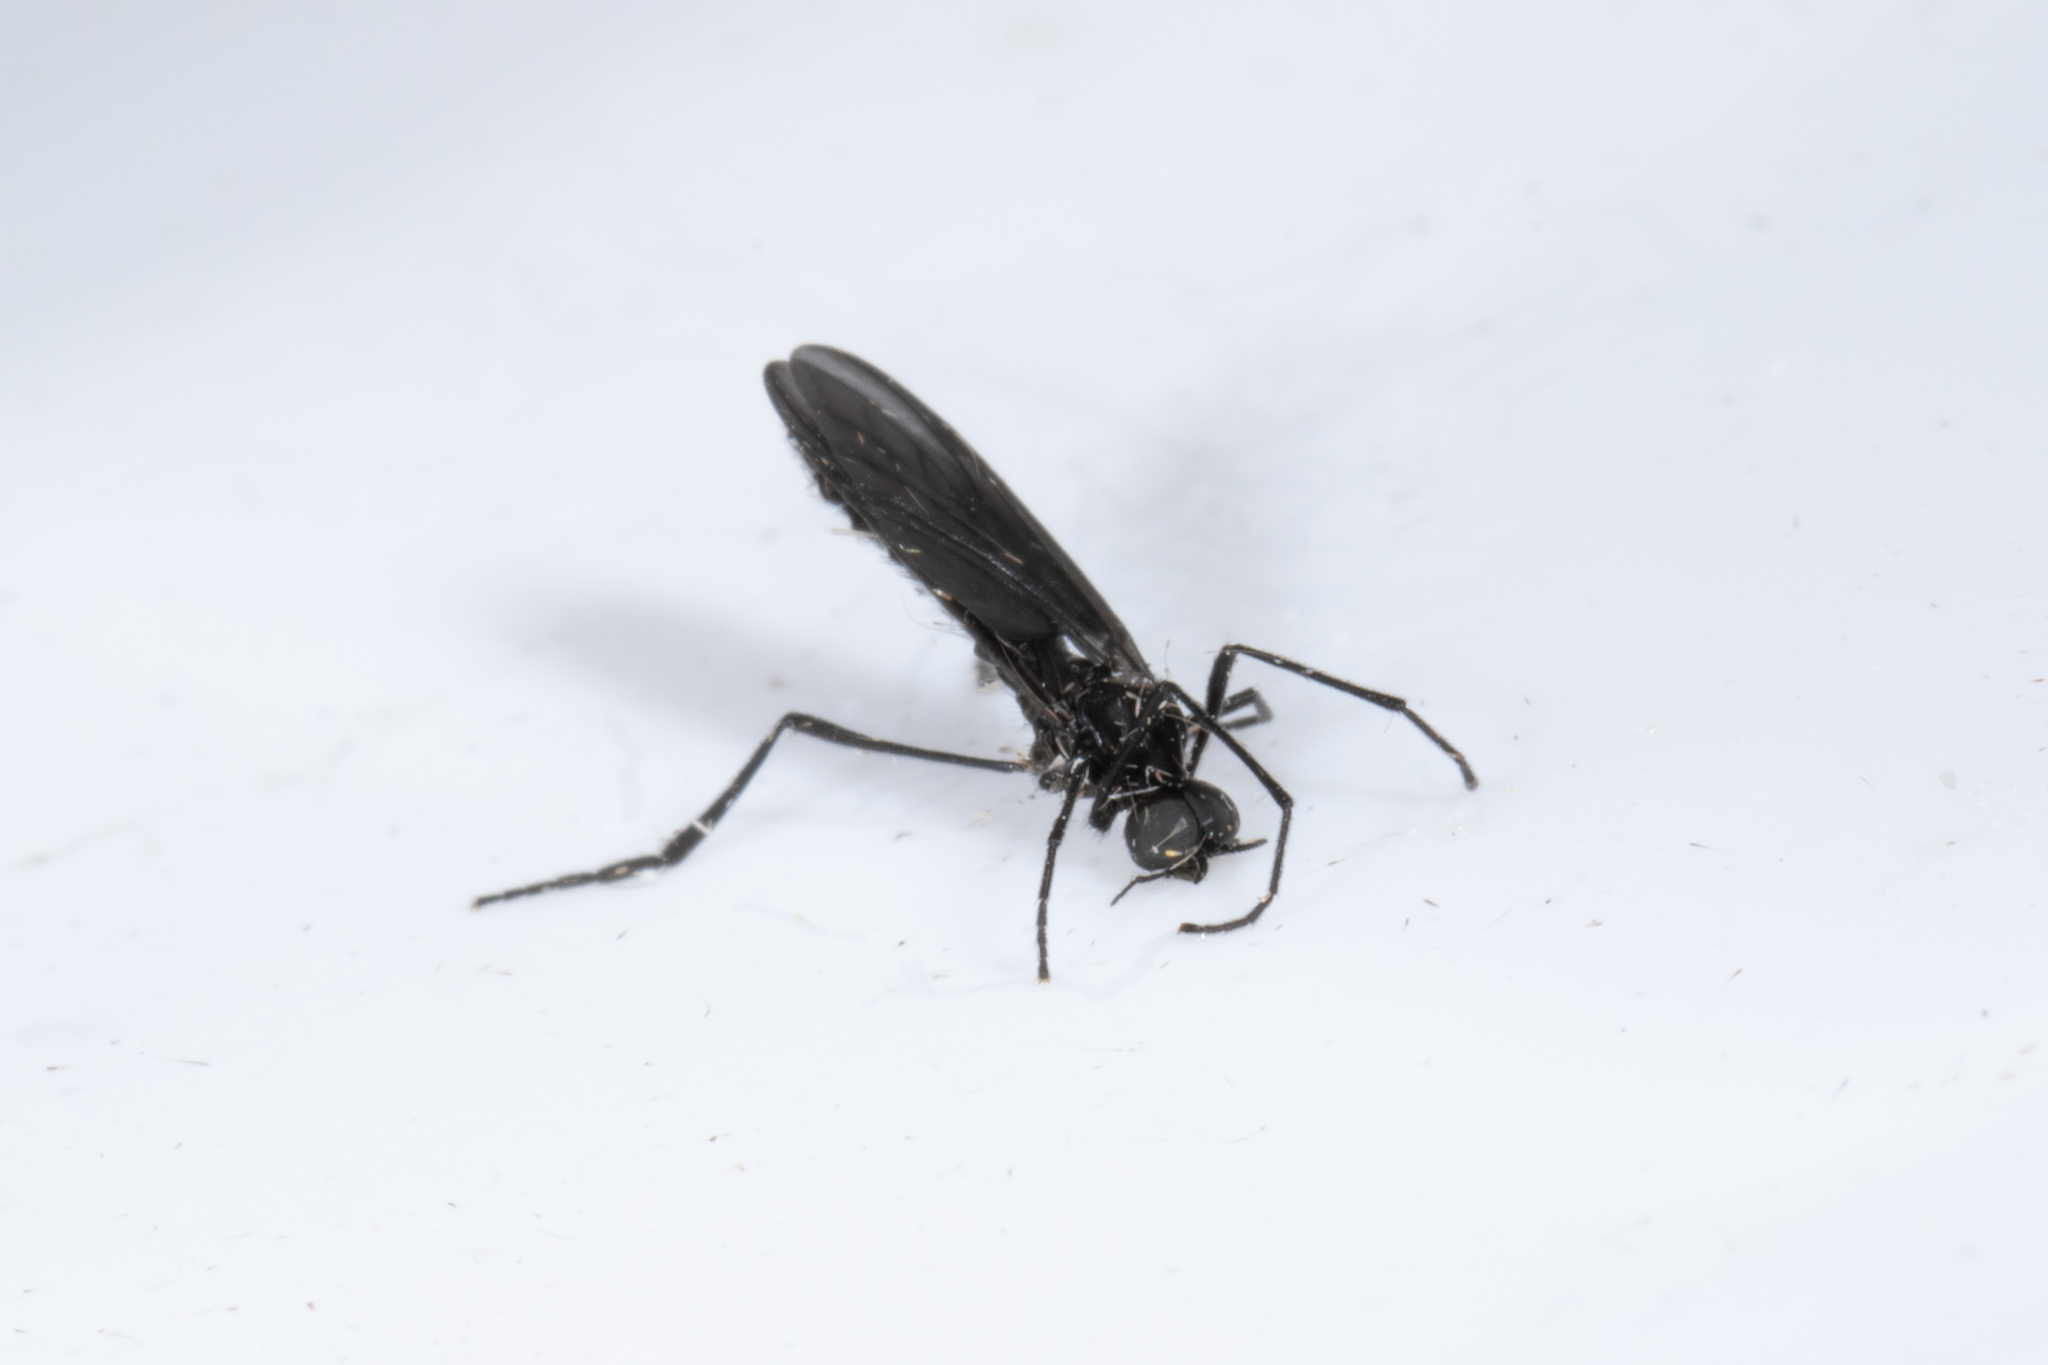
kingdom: Animalia
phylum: Arthropoda
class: Insecta
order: Diptera
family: Bibionidae
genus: Penthetria
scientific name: Penthetria heteroptera
